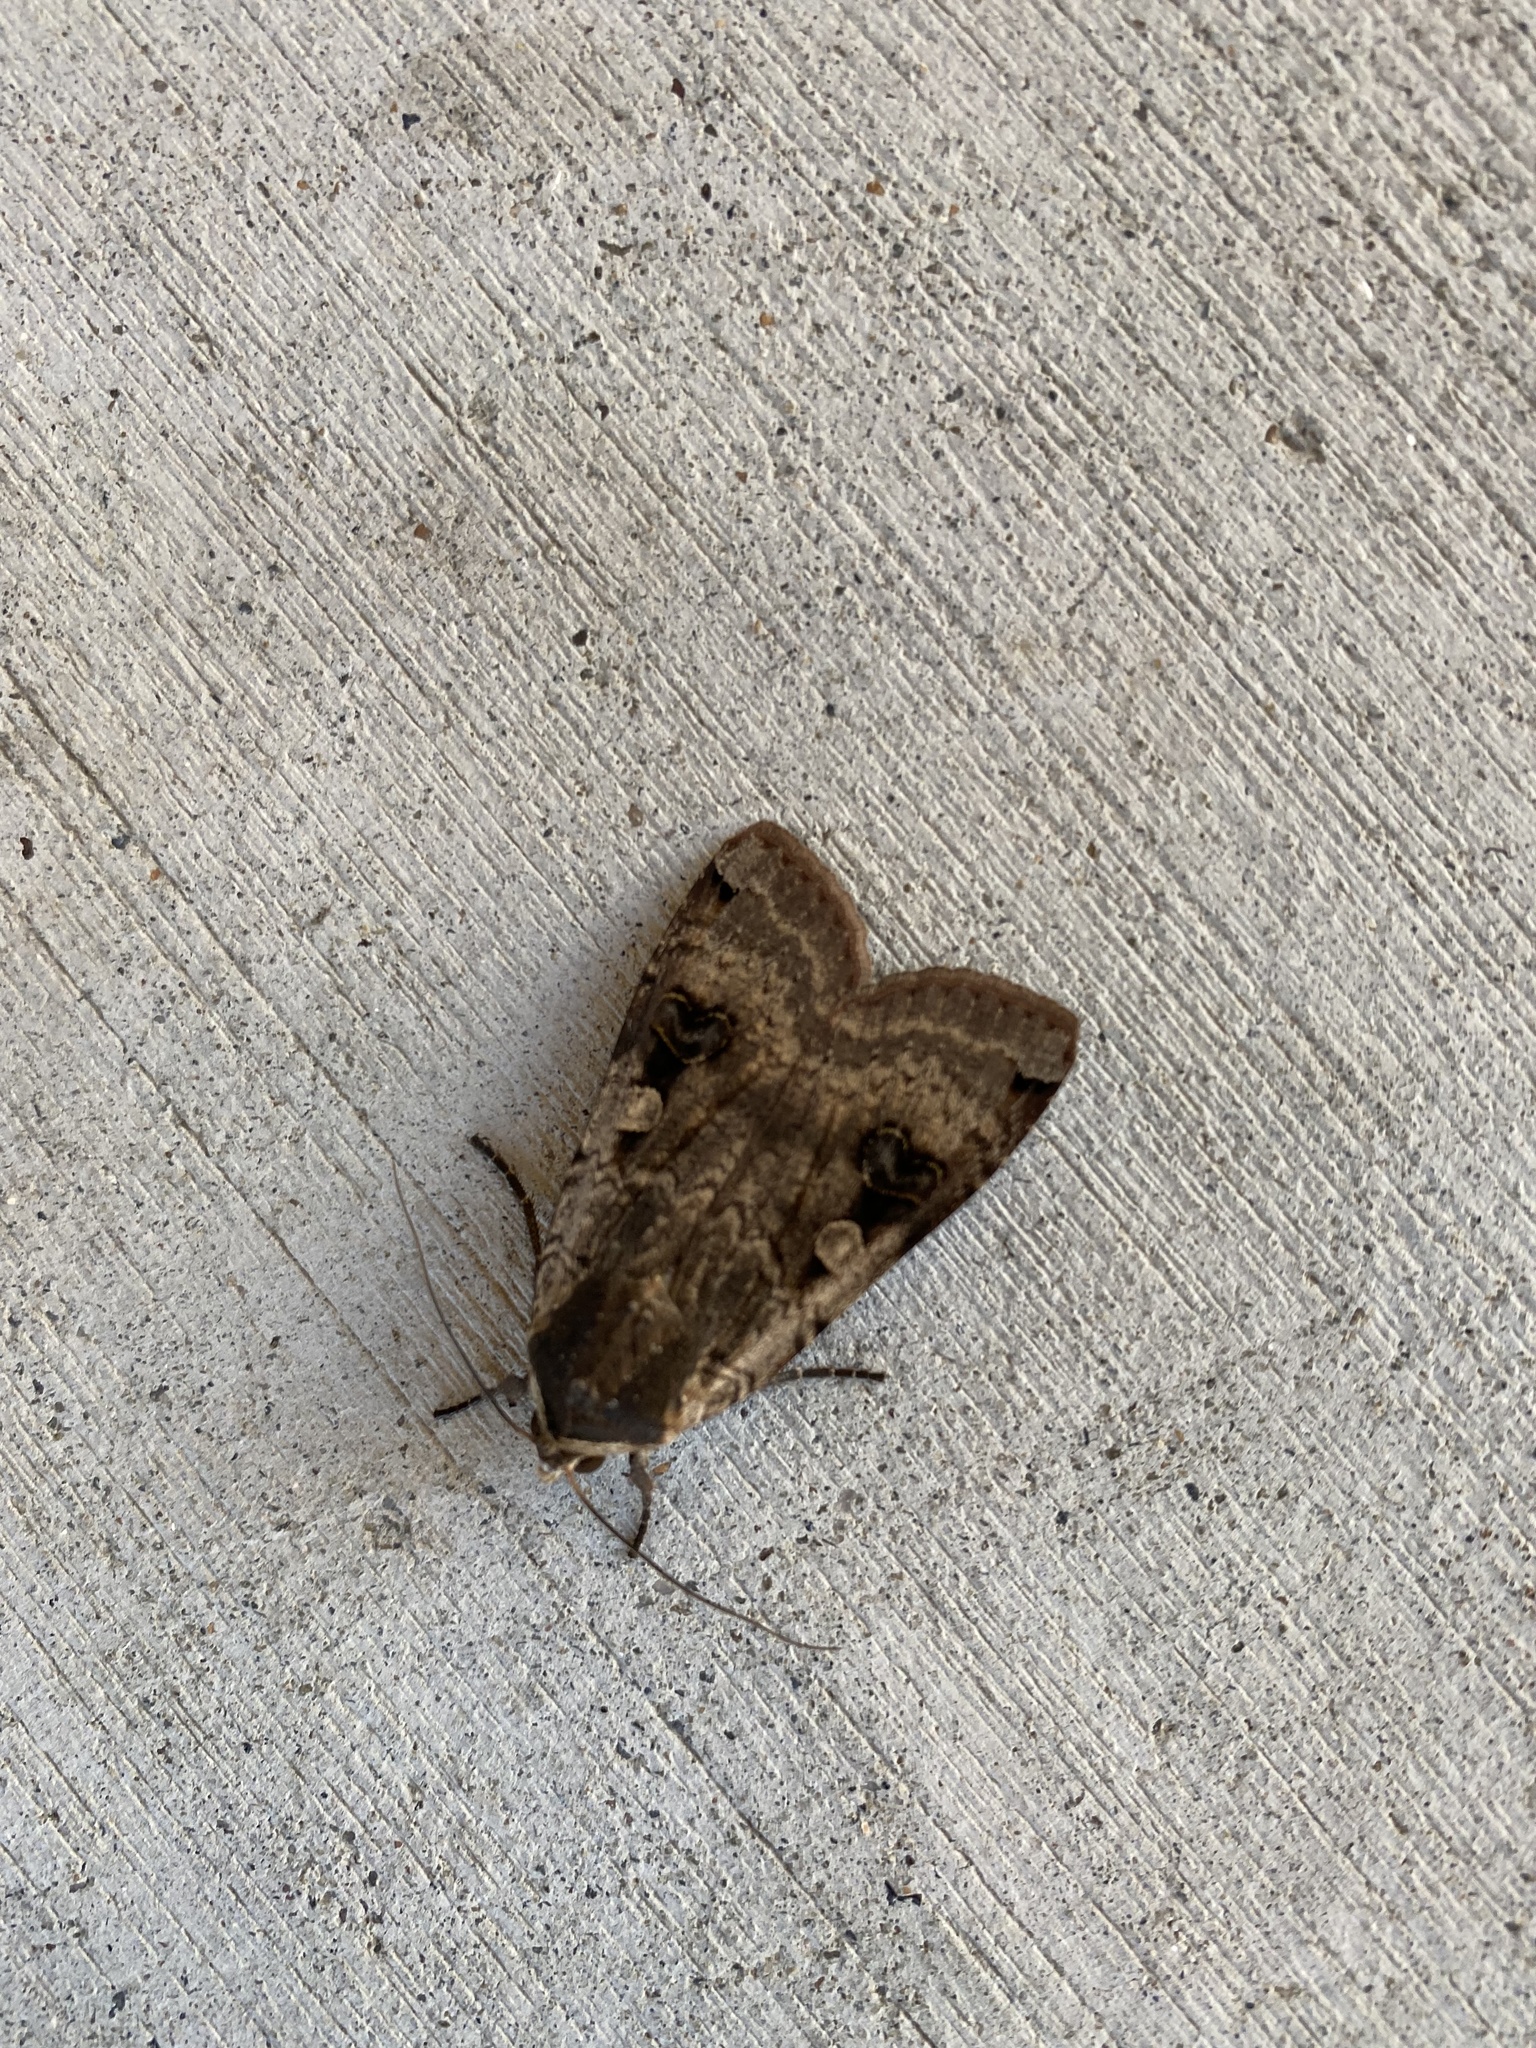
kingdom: Animalia
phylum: Arthropoda
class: Insecta
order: Lepidoptera
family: Noctuidae
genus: Noctua
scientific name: Noctua pronuba
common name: Large yellow underwing
